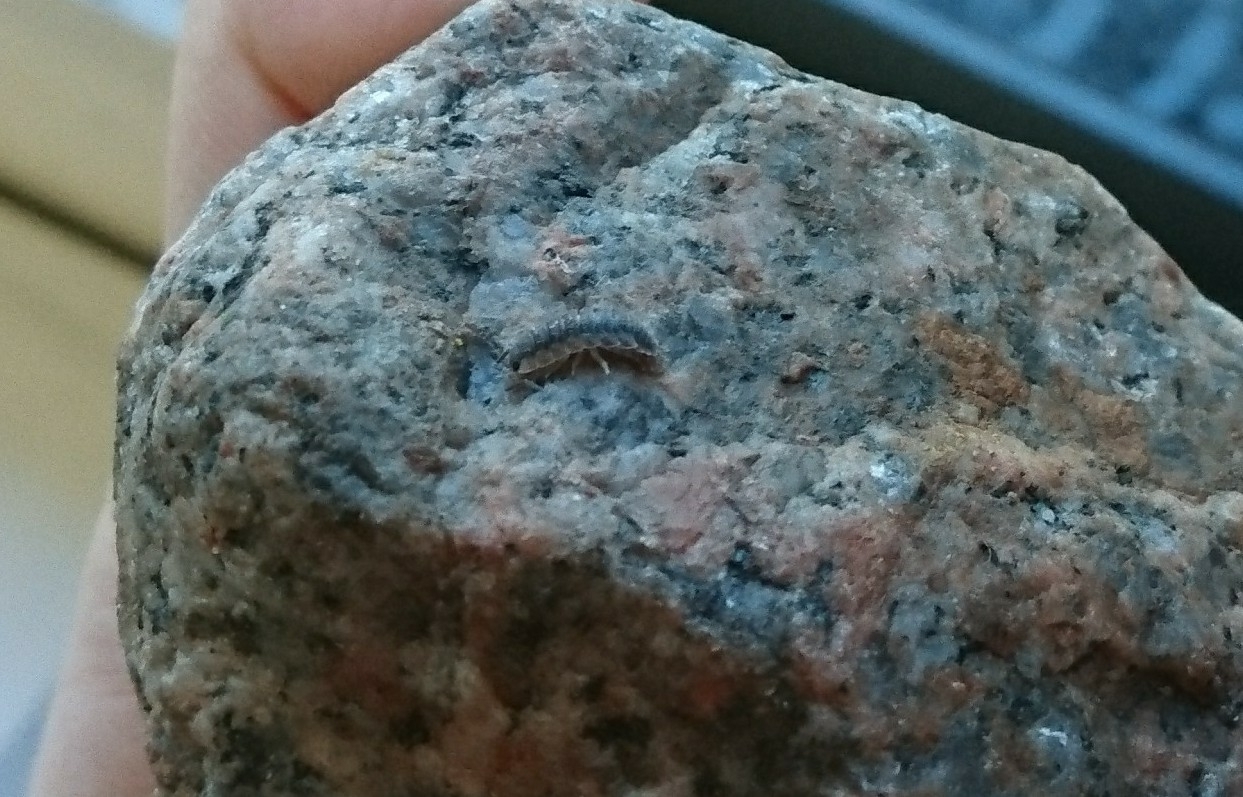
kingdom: Animalia
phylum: Arthropoda
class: Malacostraca
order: Isopoda
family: Porcellionidae
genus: Porcellio
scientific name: Porcellio scaber
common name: Common rough woodlouse
